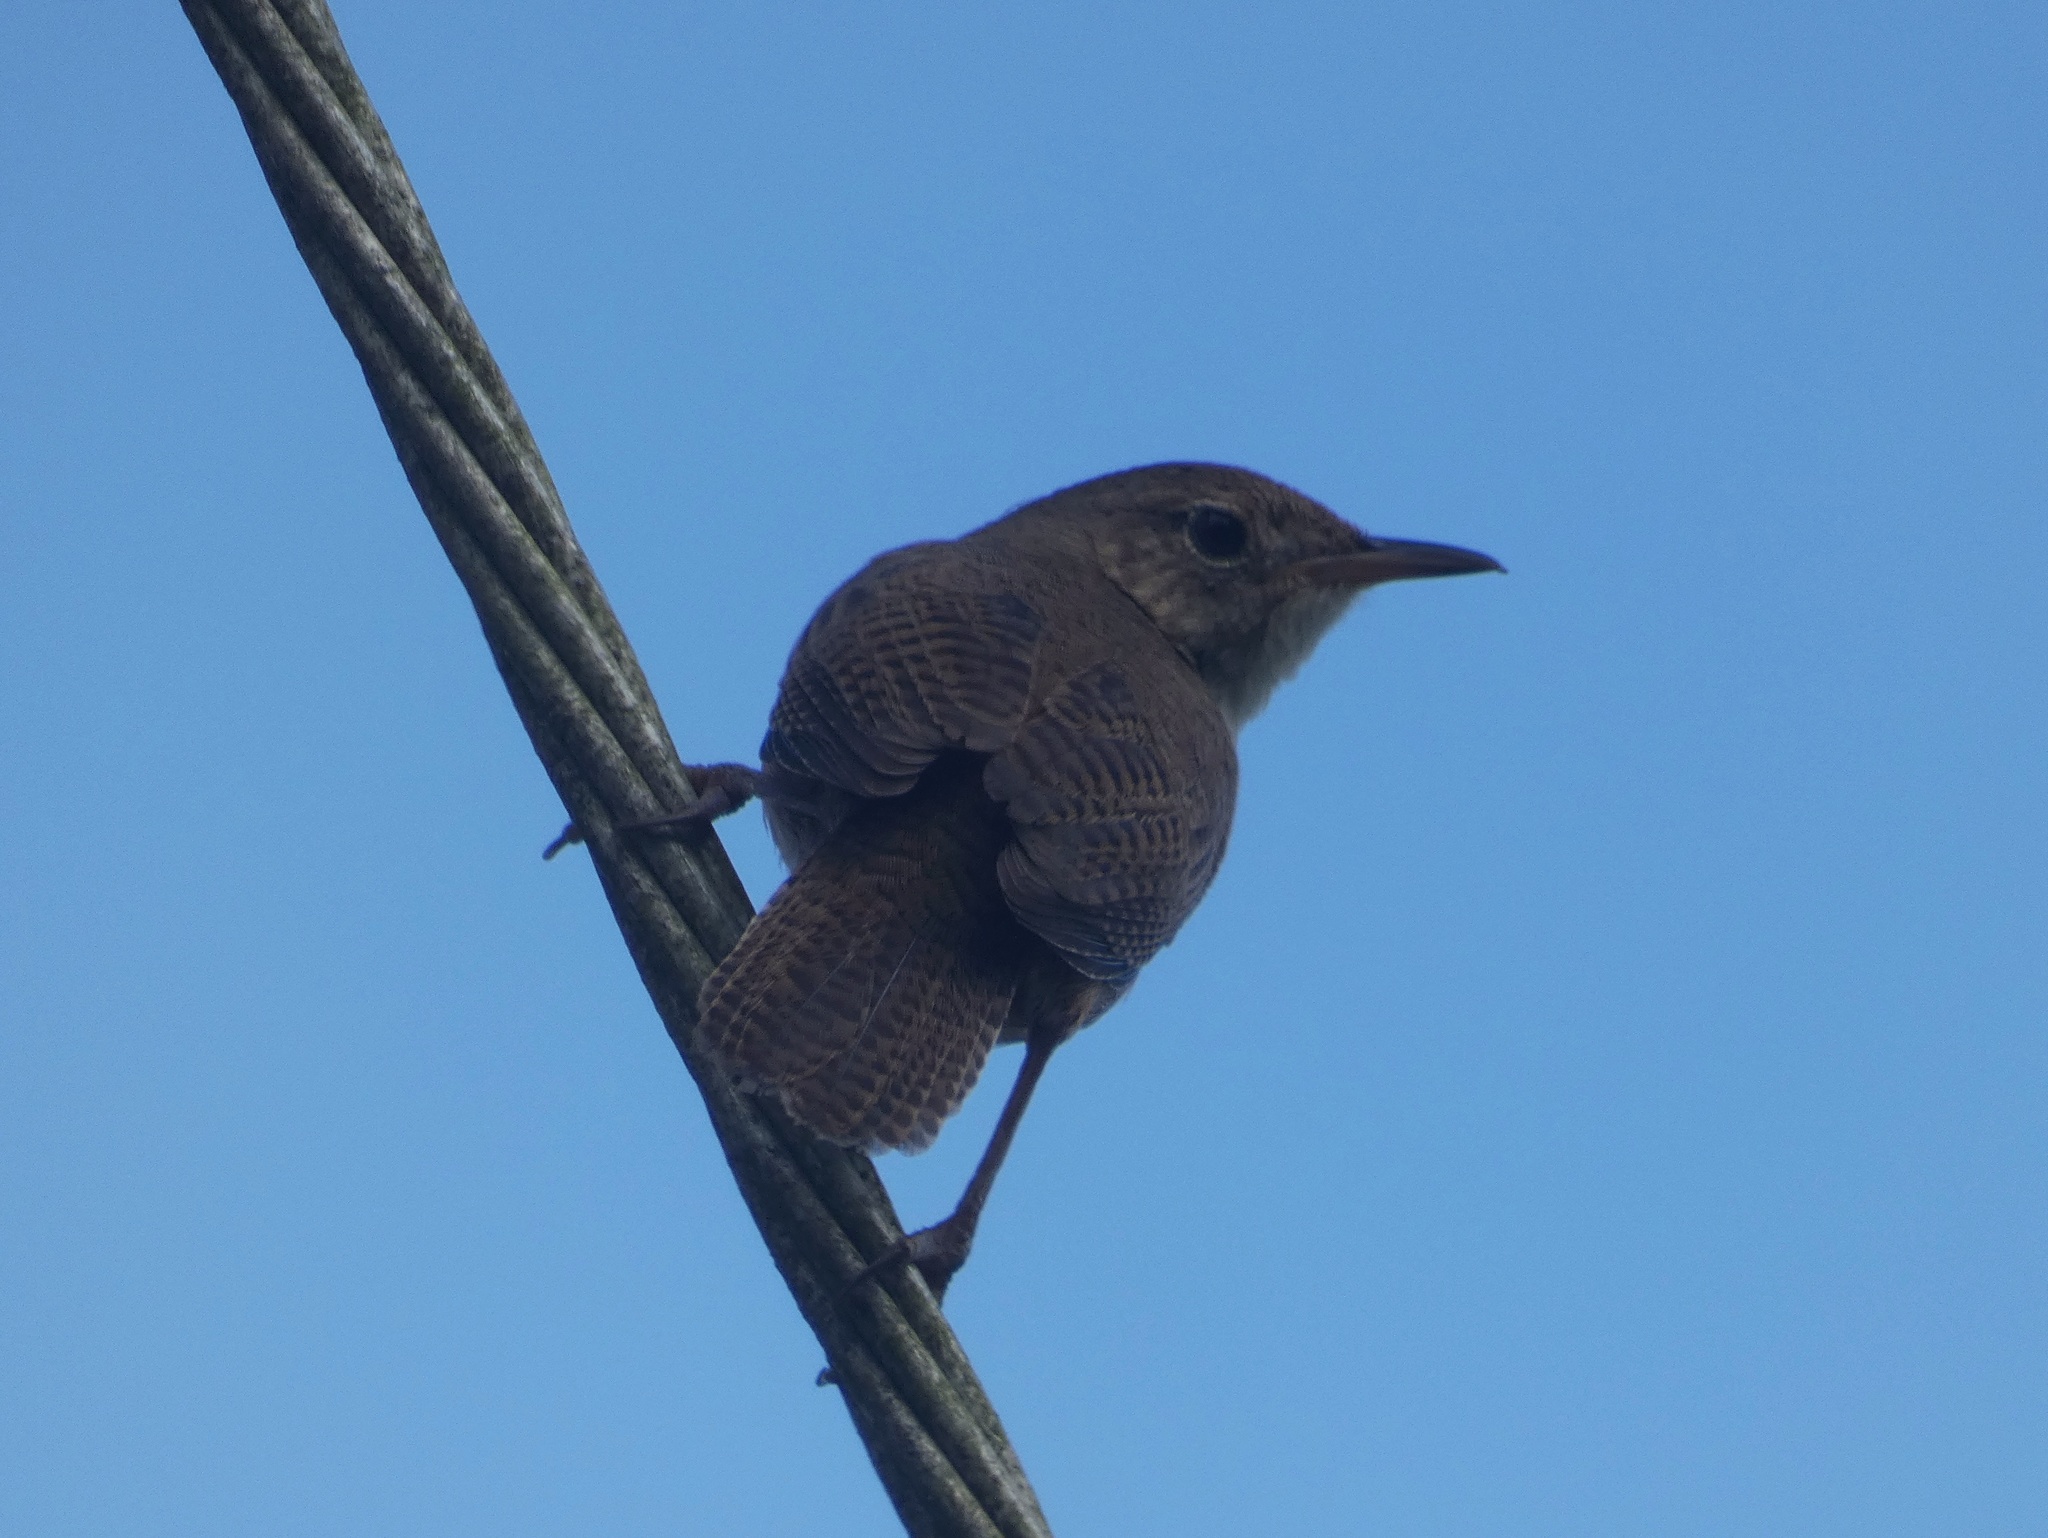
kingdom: Animalia
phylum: Chordata
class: Aves
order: Passeriformes
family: Troglodytidae
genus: Troglodytes
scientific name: Troglodytes aedon
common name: House wren
